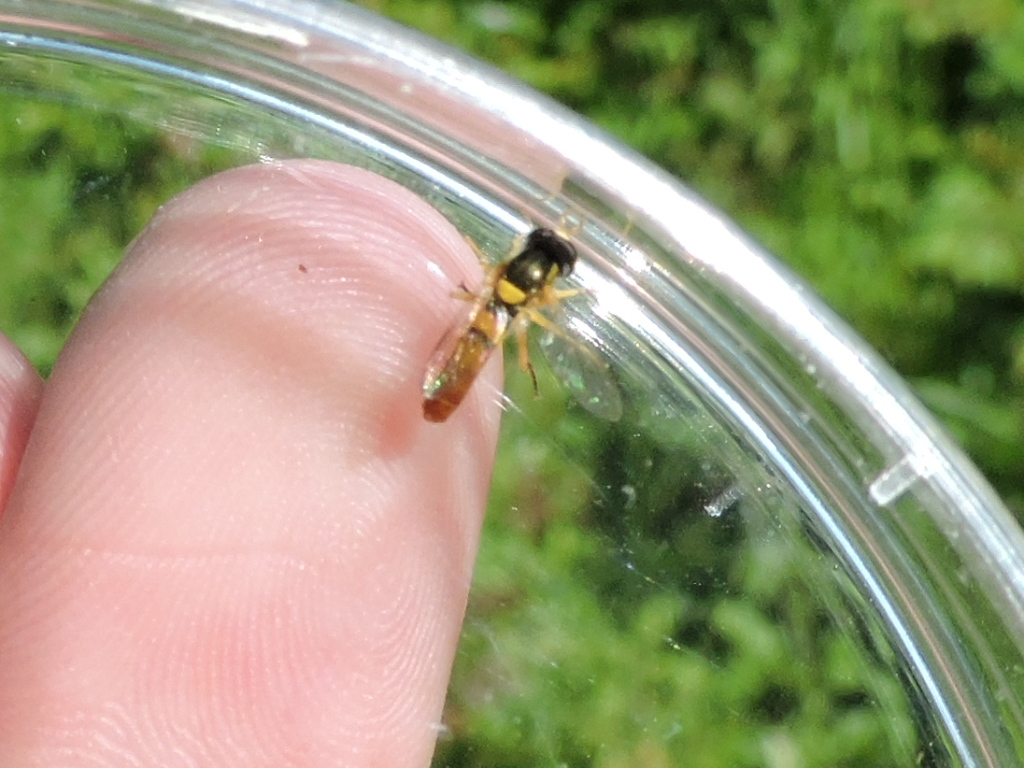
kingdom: Animalia
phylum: Arthropoda
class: Insecta
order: Diptera
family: Syrphidae
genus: Sphaerophoria
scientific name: Sphaerophoria contigua
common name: Tufted globetail
